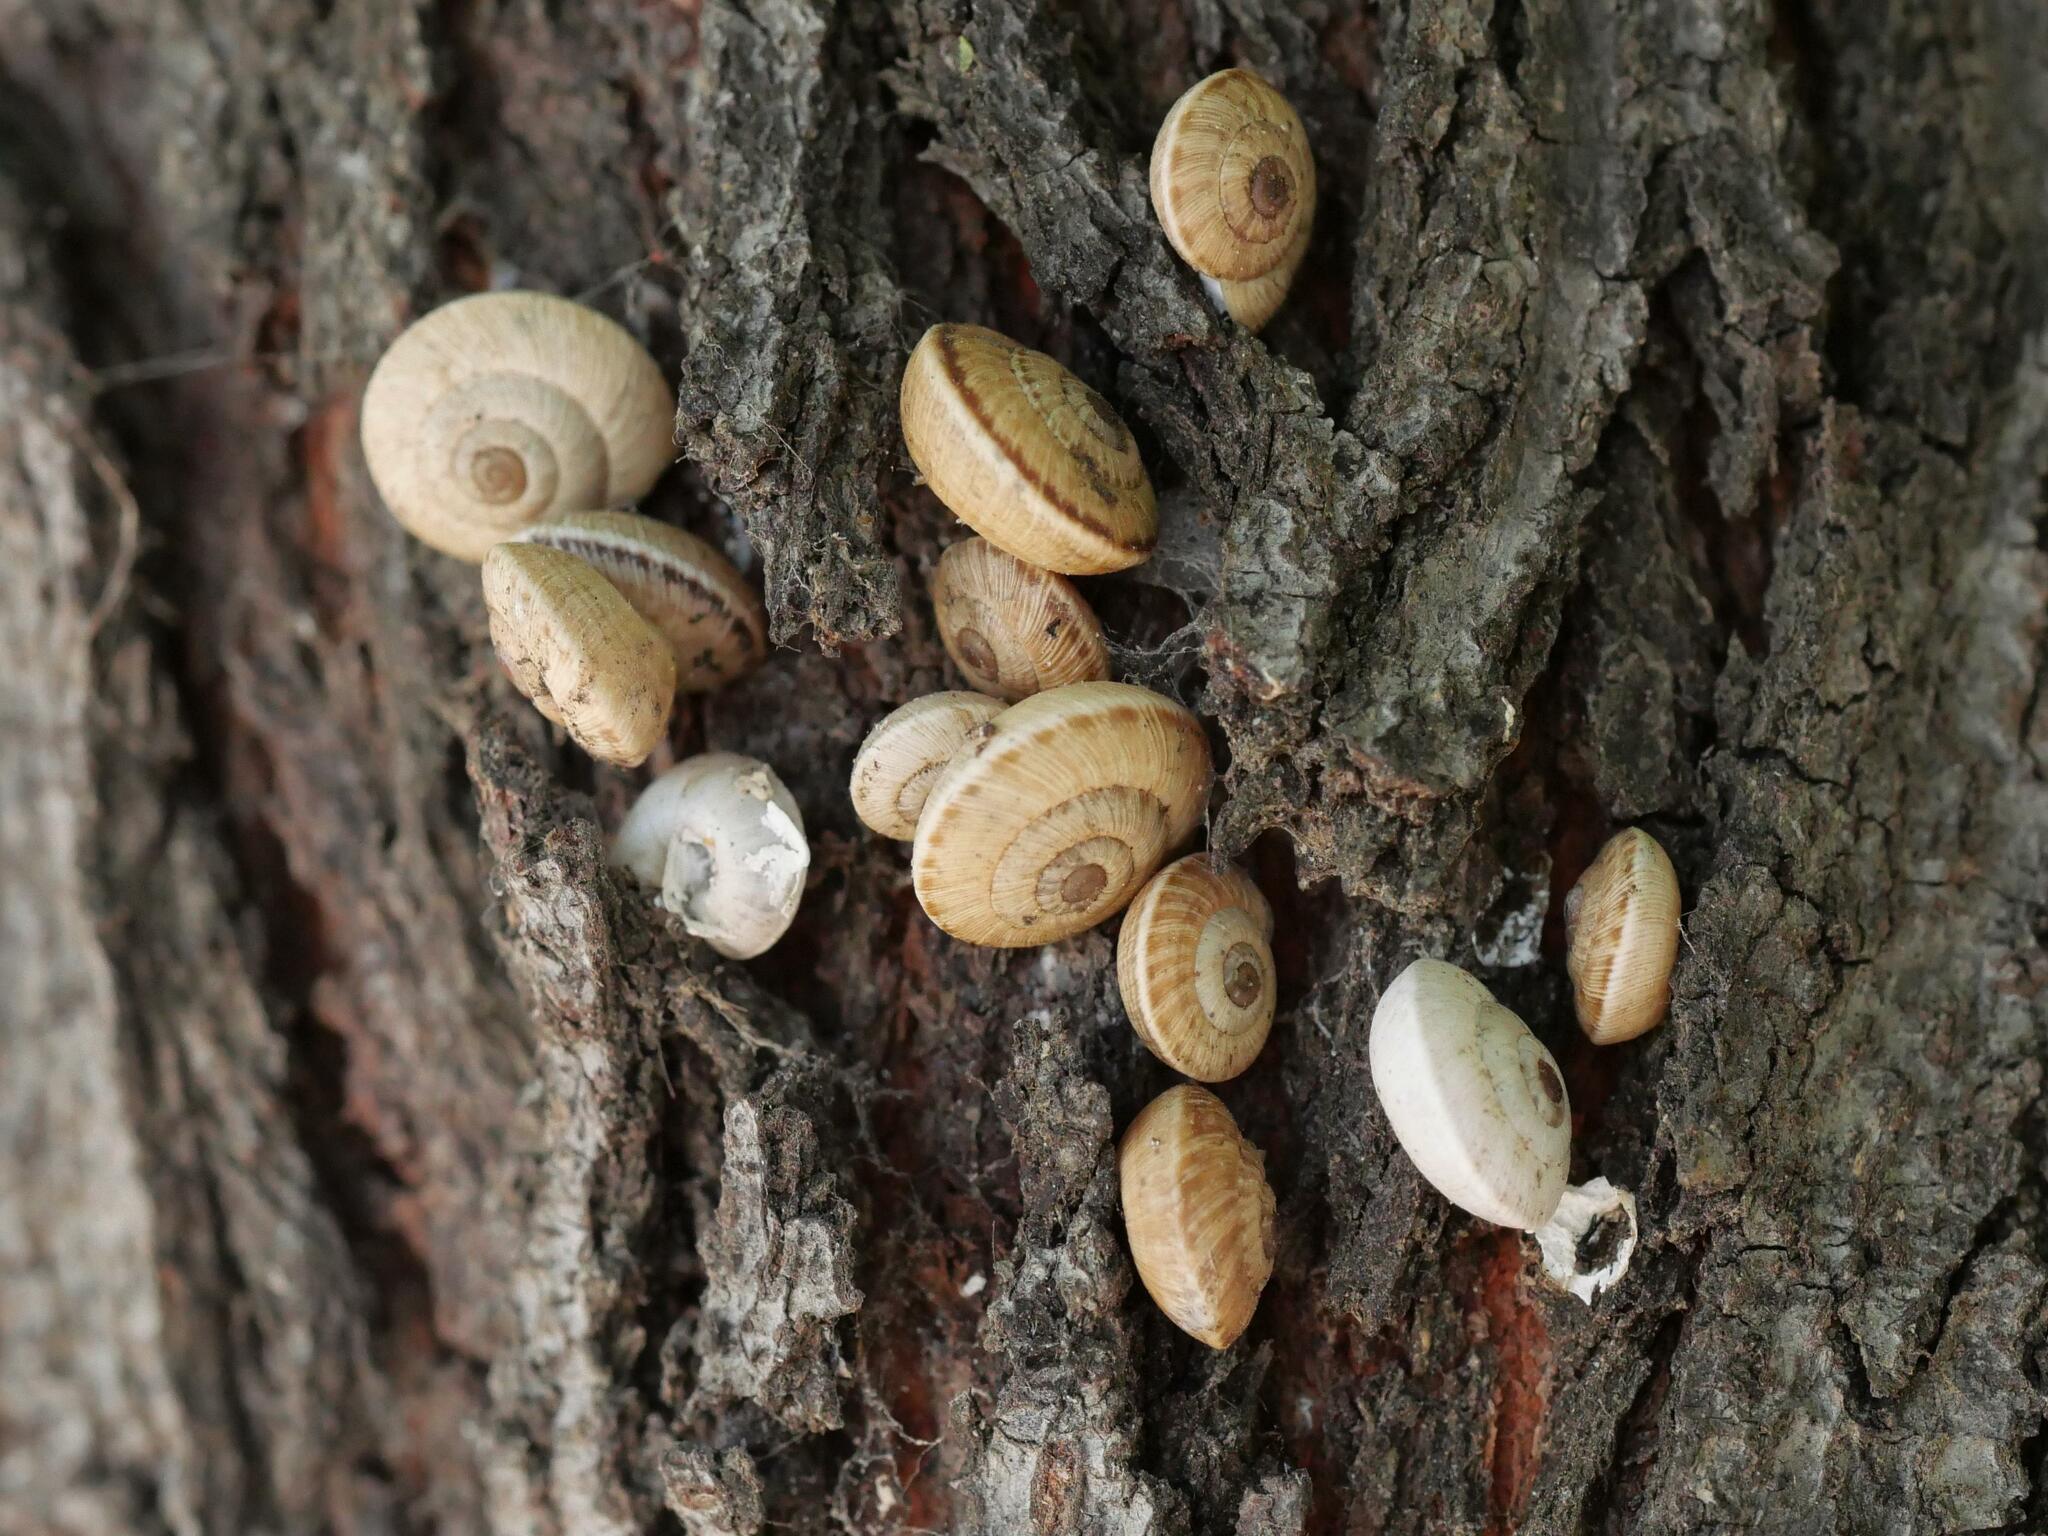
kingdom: Animalia
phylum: Mollusca
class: Gastropoda
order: Stylommatophora
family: Helicidae
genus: Theba
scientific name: Theba pisana
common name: White snail
